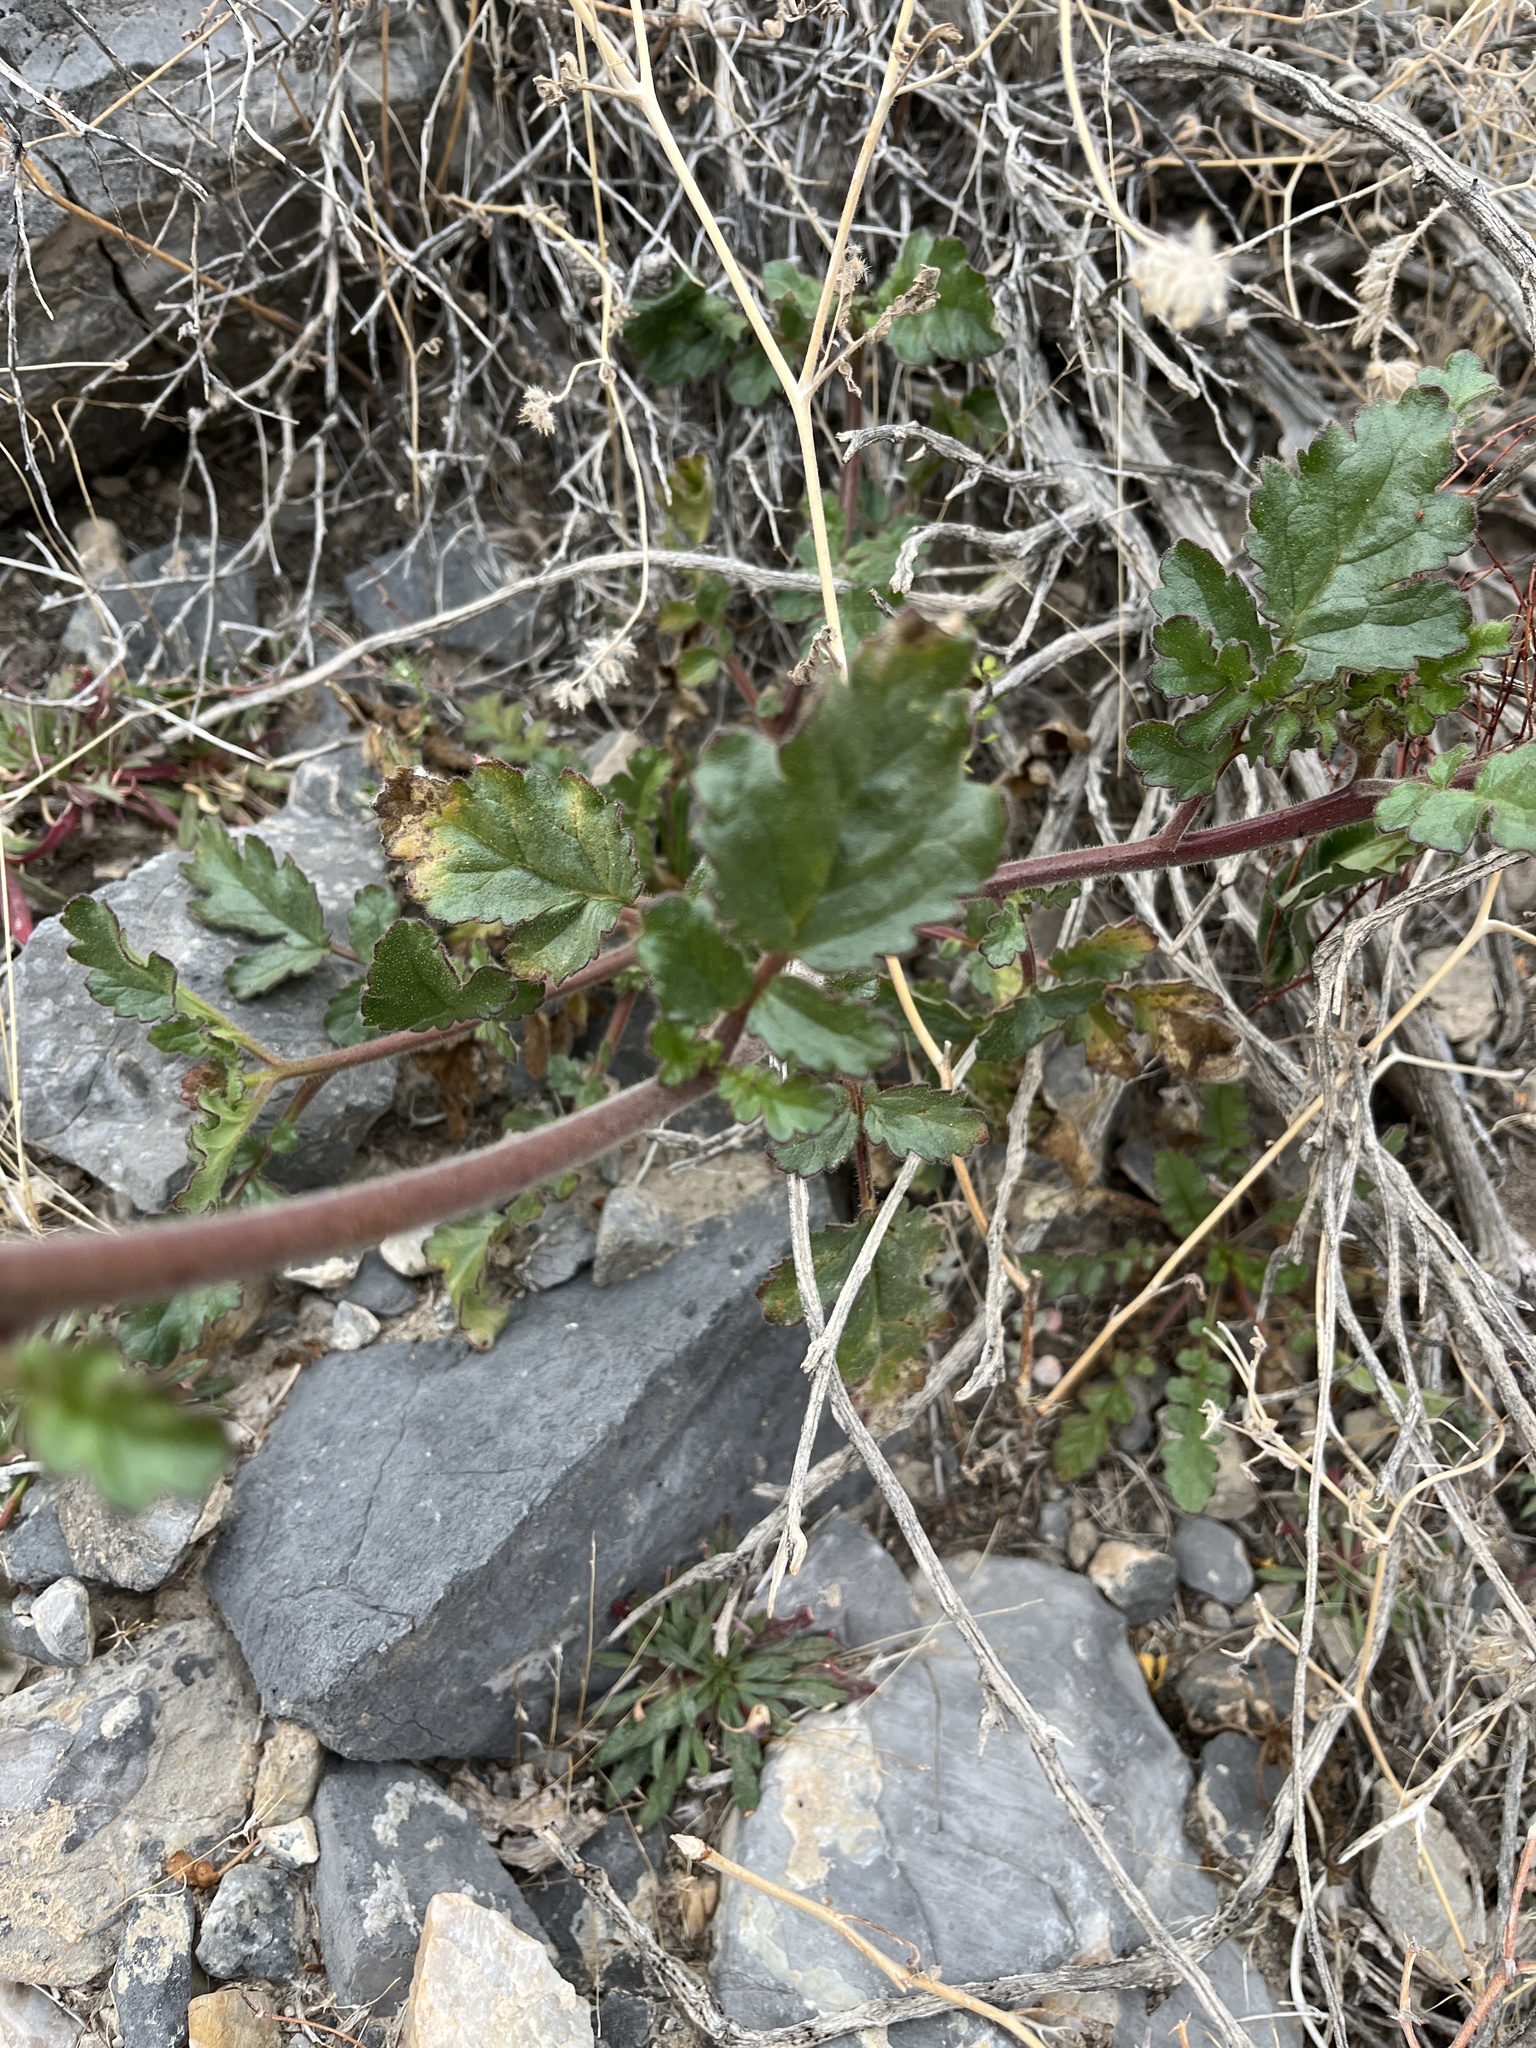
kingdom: Plantae
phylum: Tracheophyta
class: Magnoliopsida
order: Boraginales
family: Hydrophyllaceae
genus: Phacelia
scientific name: Phacelia crenulata
